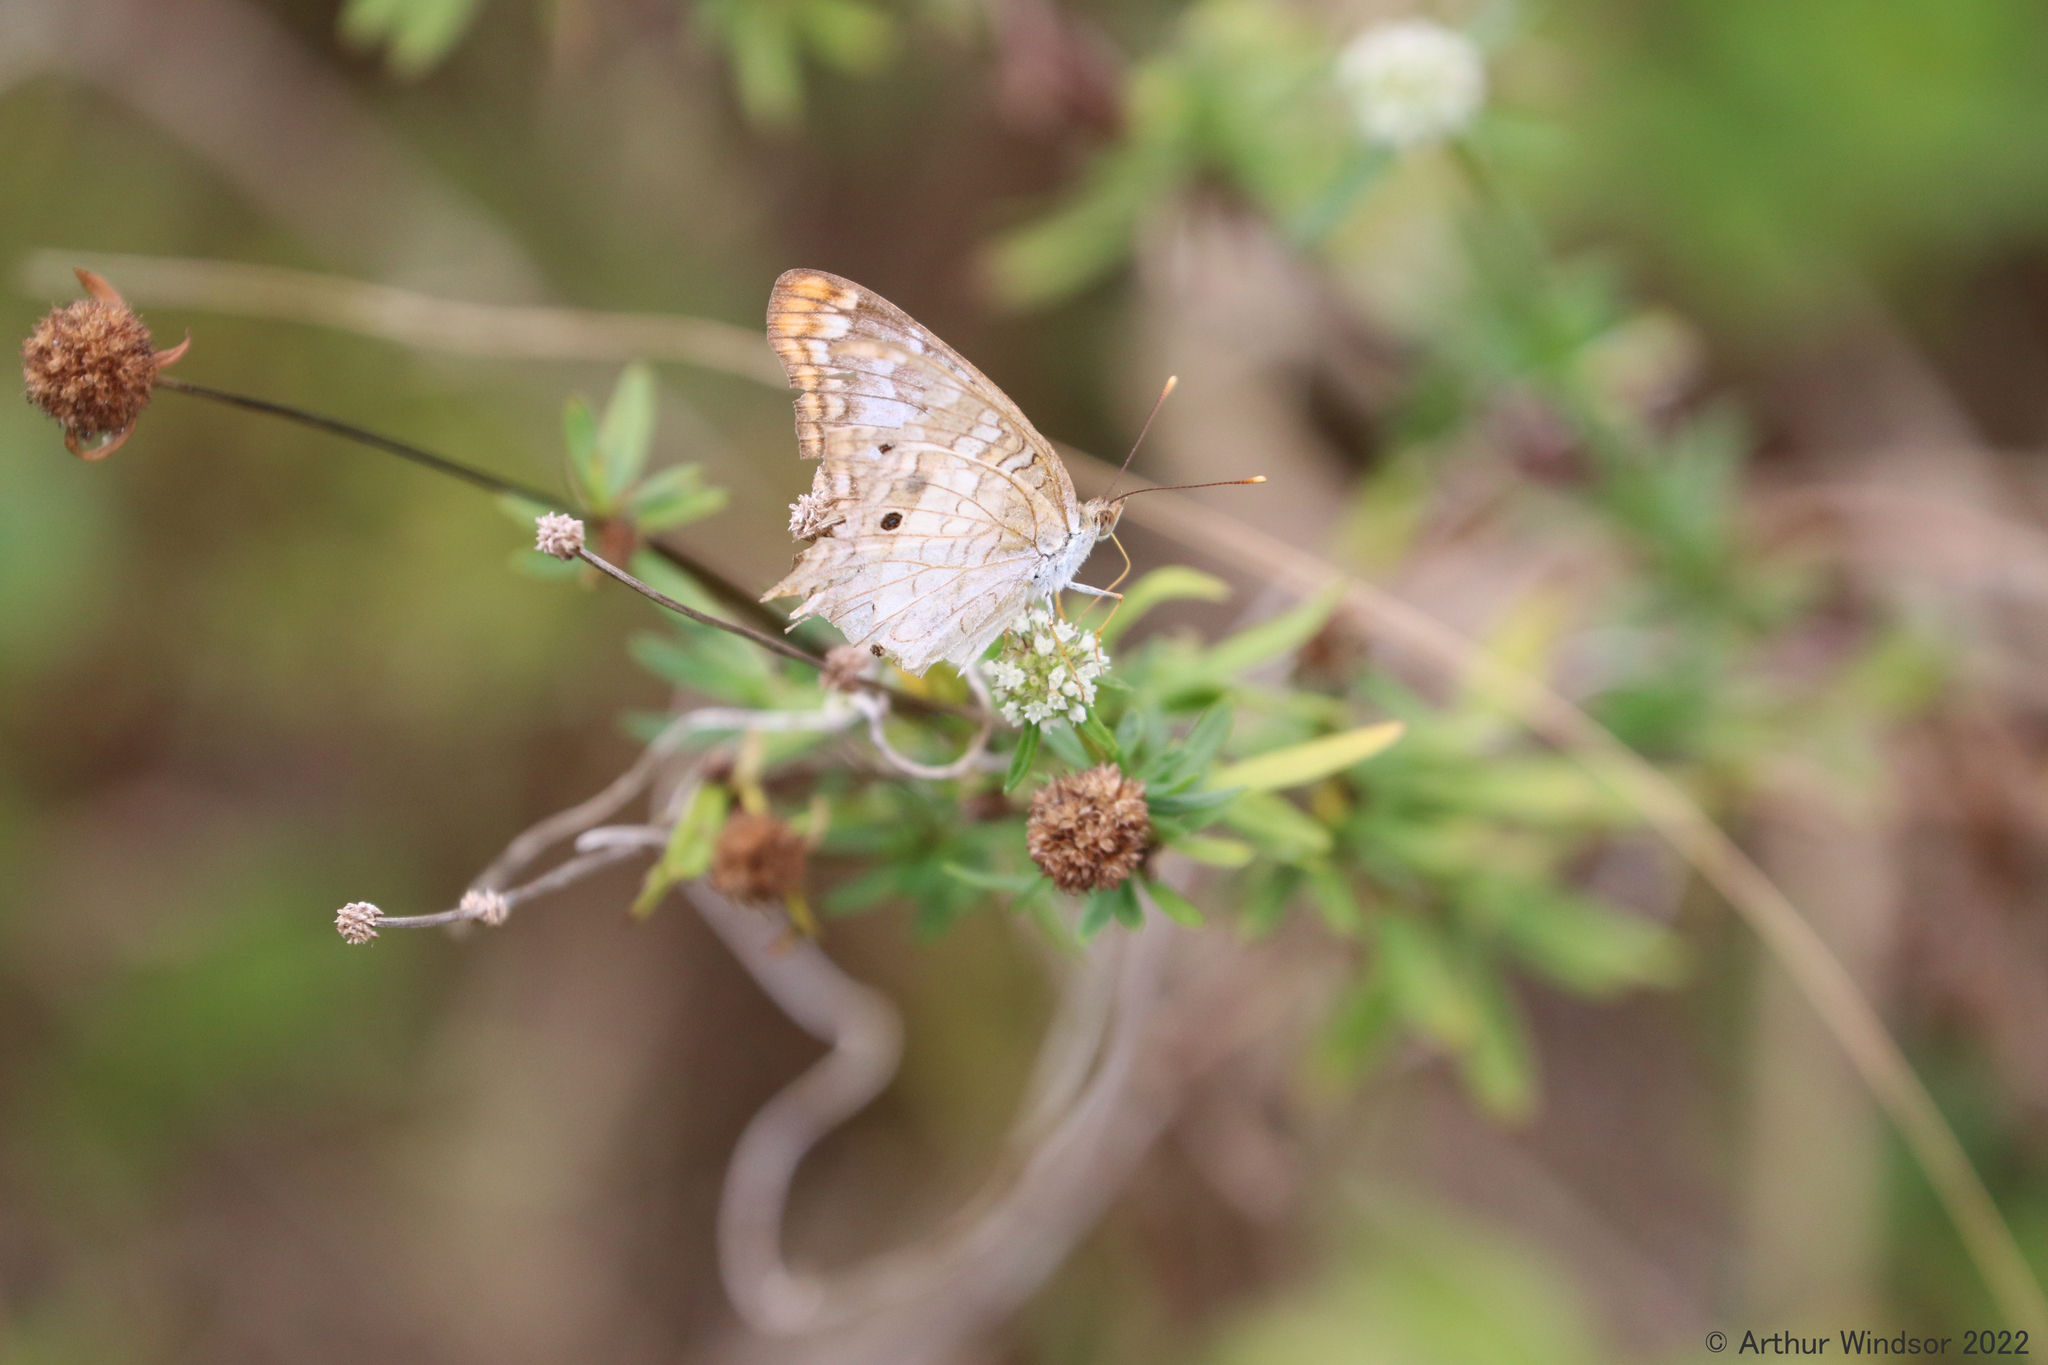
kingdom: Animalia
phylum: Arthropoda
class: Insecta
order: Lepidoptera
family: Nymphalidae
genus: Anartia
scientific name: Anartia jatrophae
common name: White peacock
